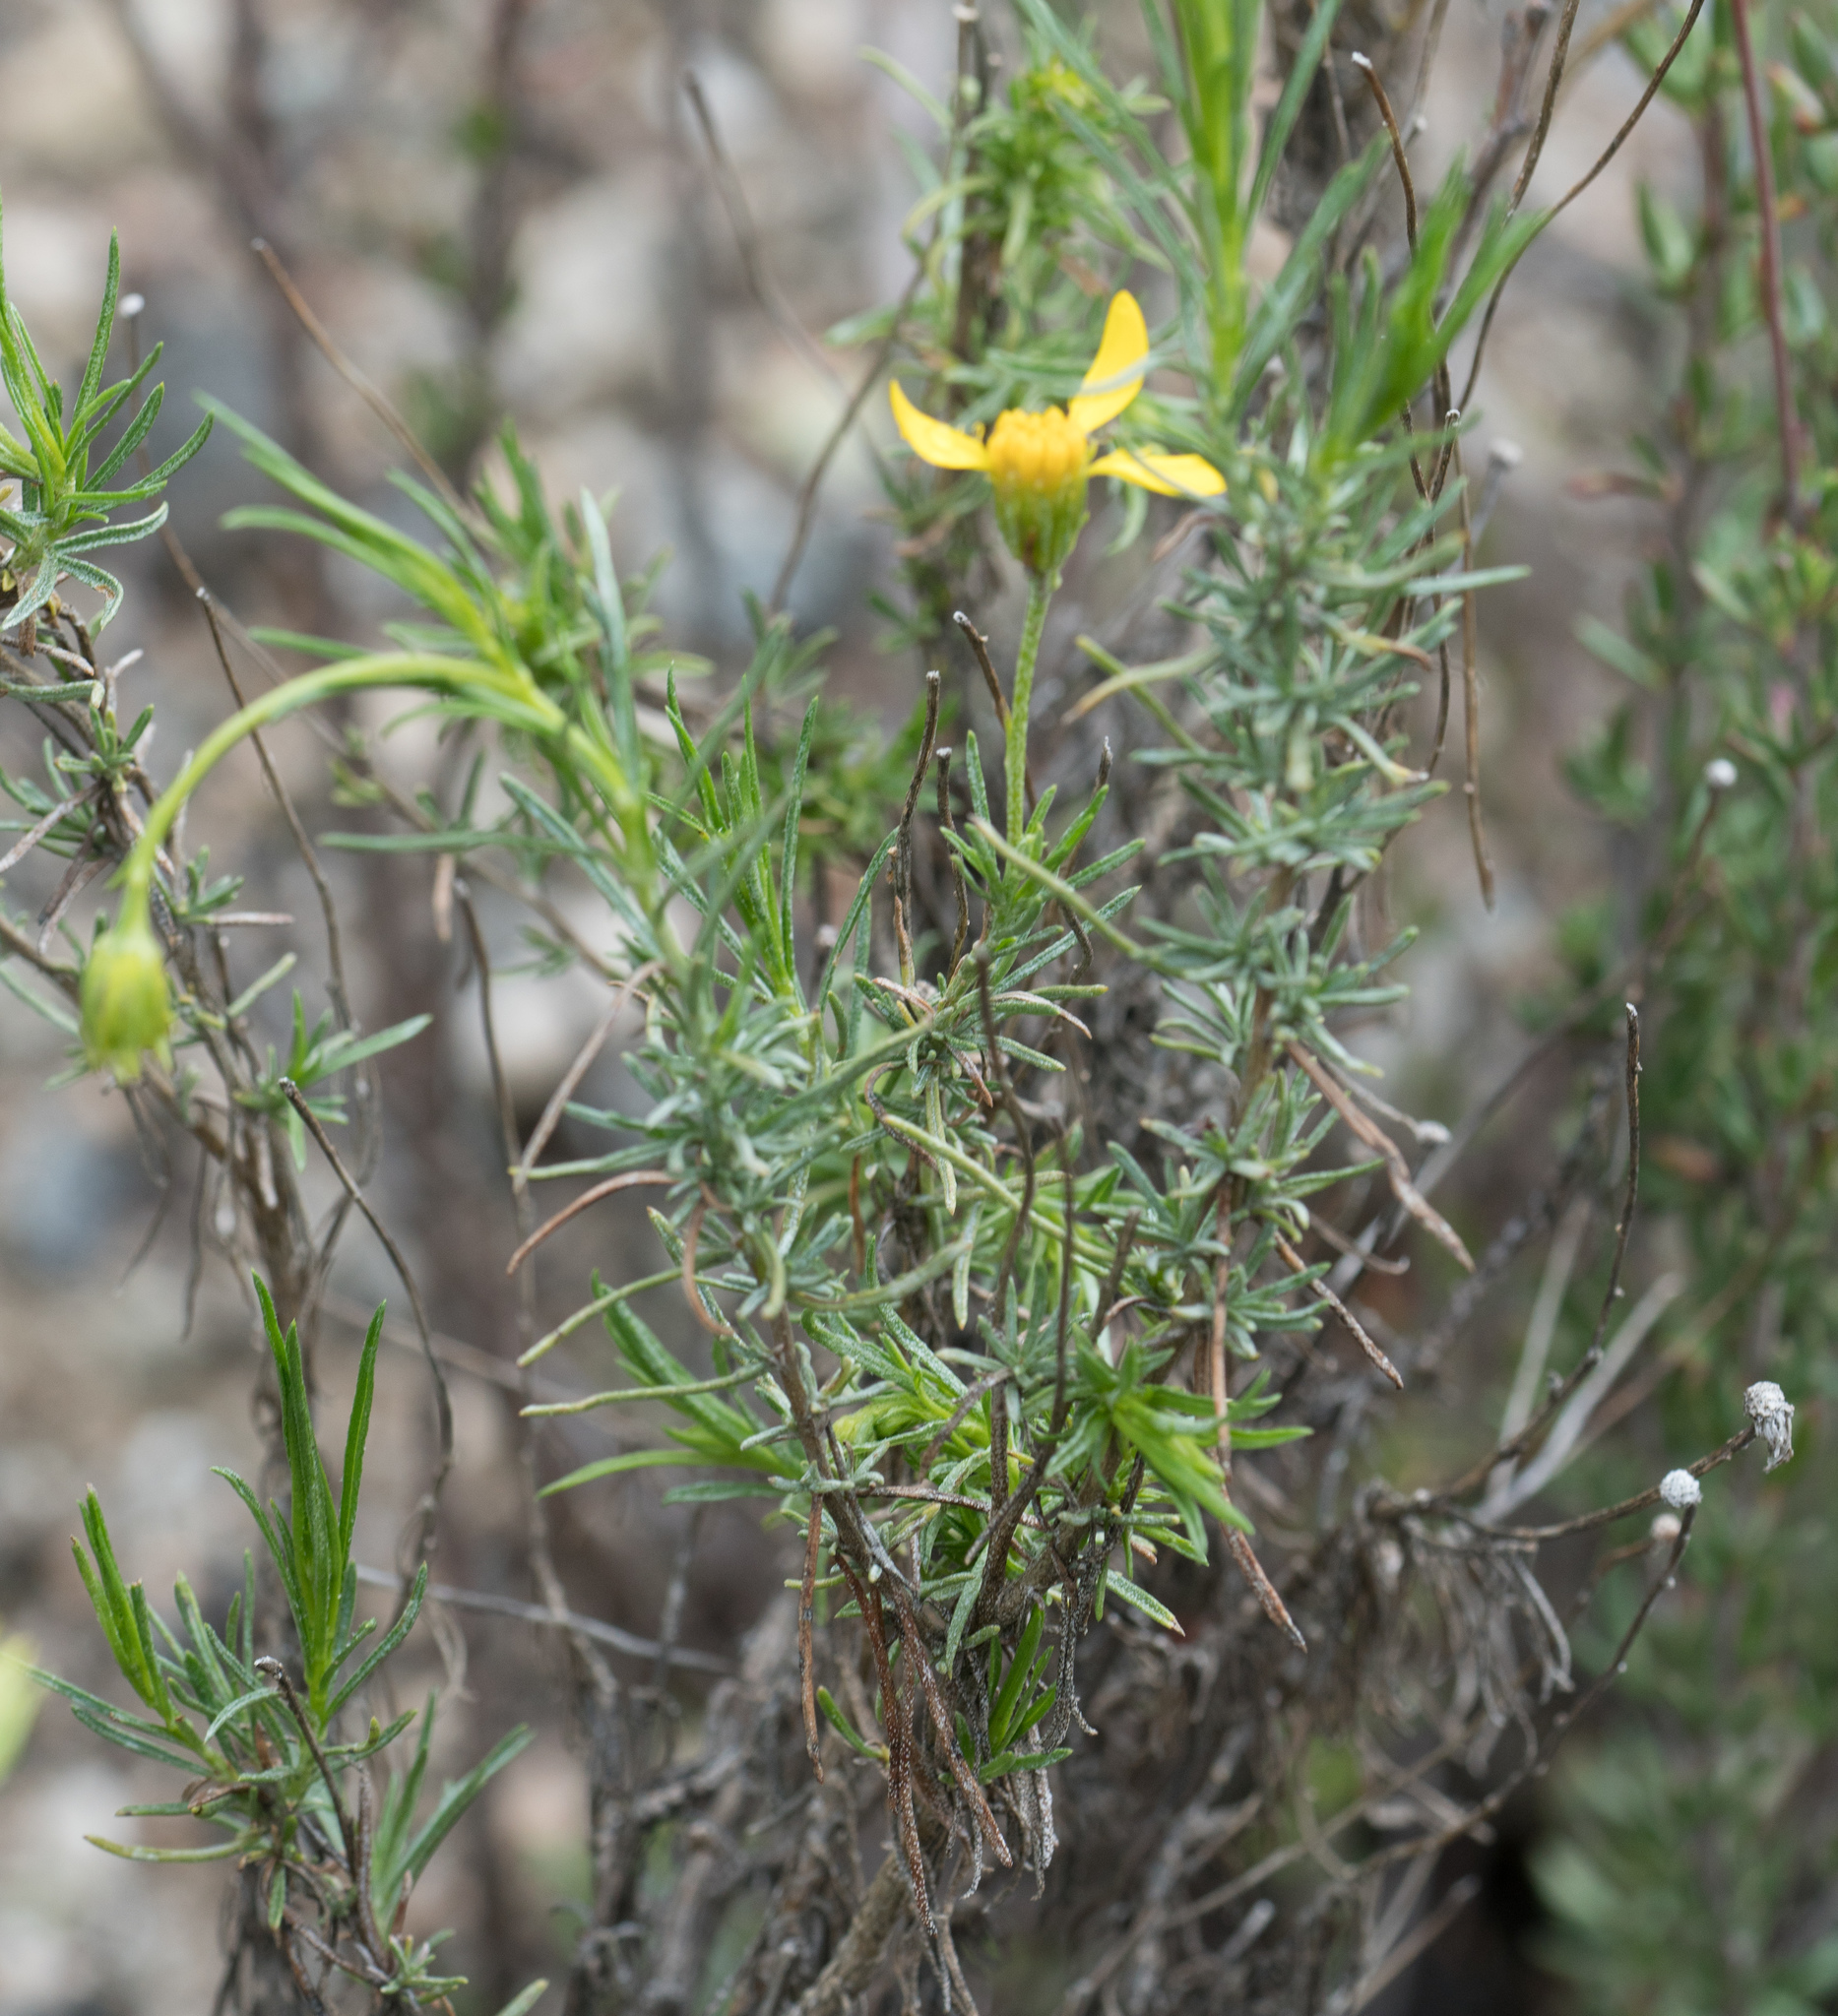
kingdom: Plantae
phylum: Tracheophyta
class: Magnoliopsida
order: Asterales
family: Asteraceae
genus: Ericameria
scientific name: Ericameria linearifolia
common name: Interior goldenbush
